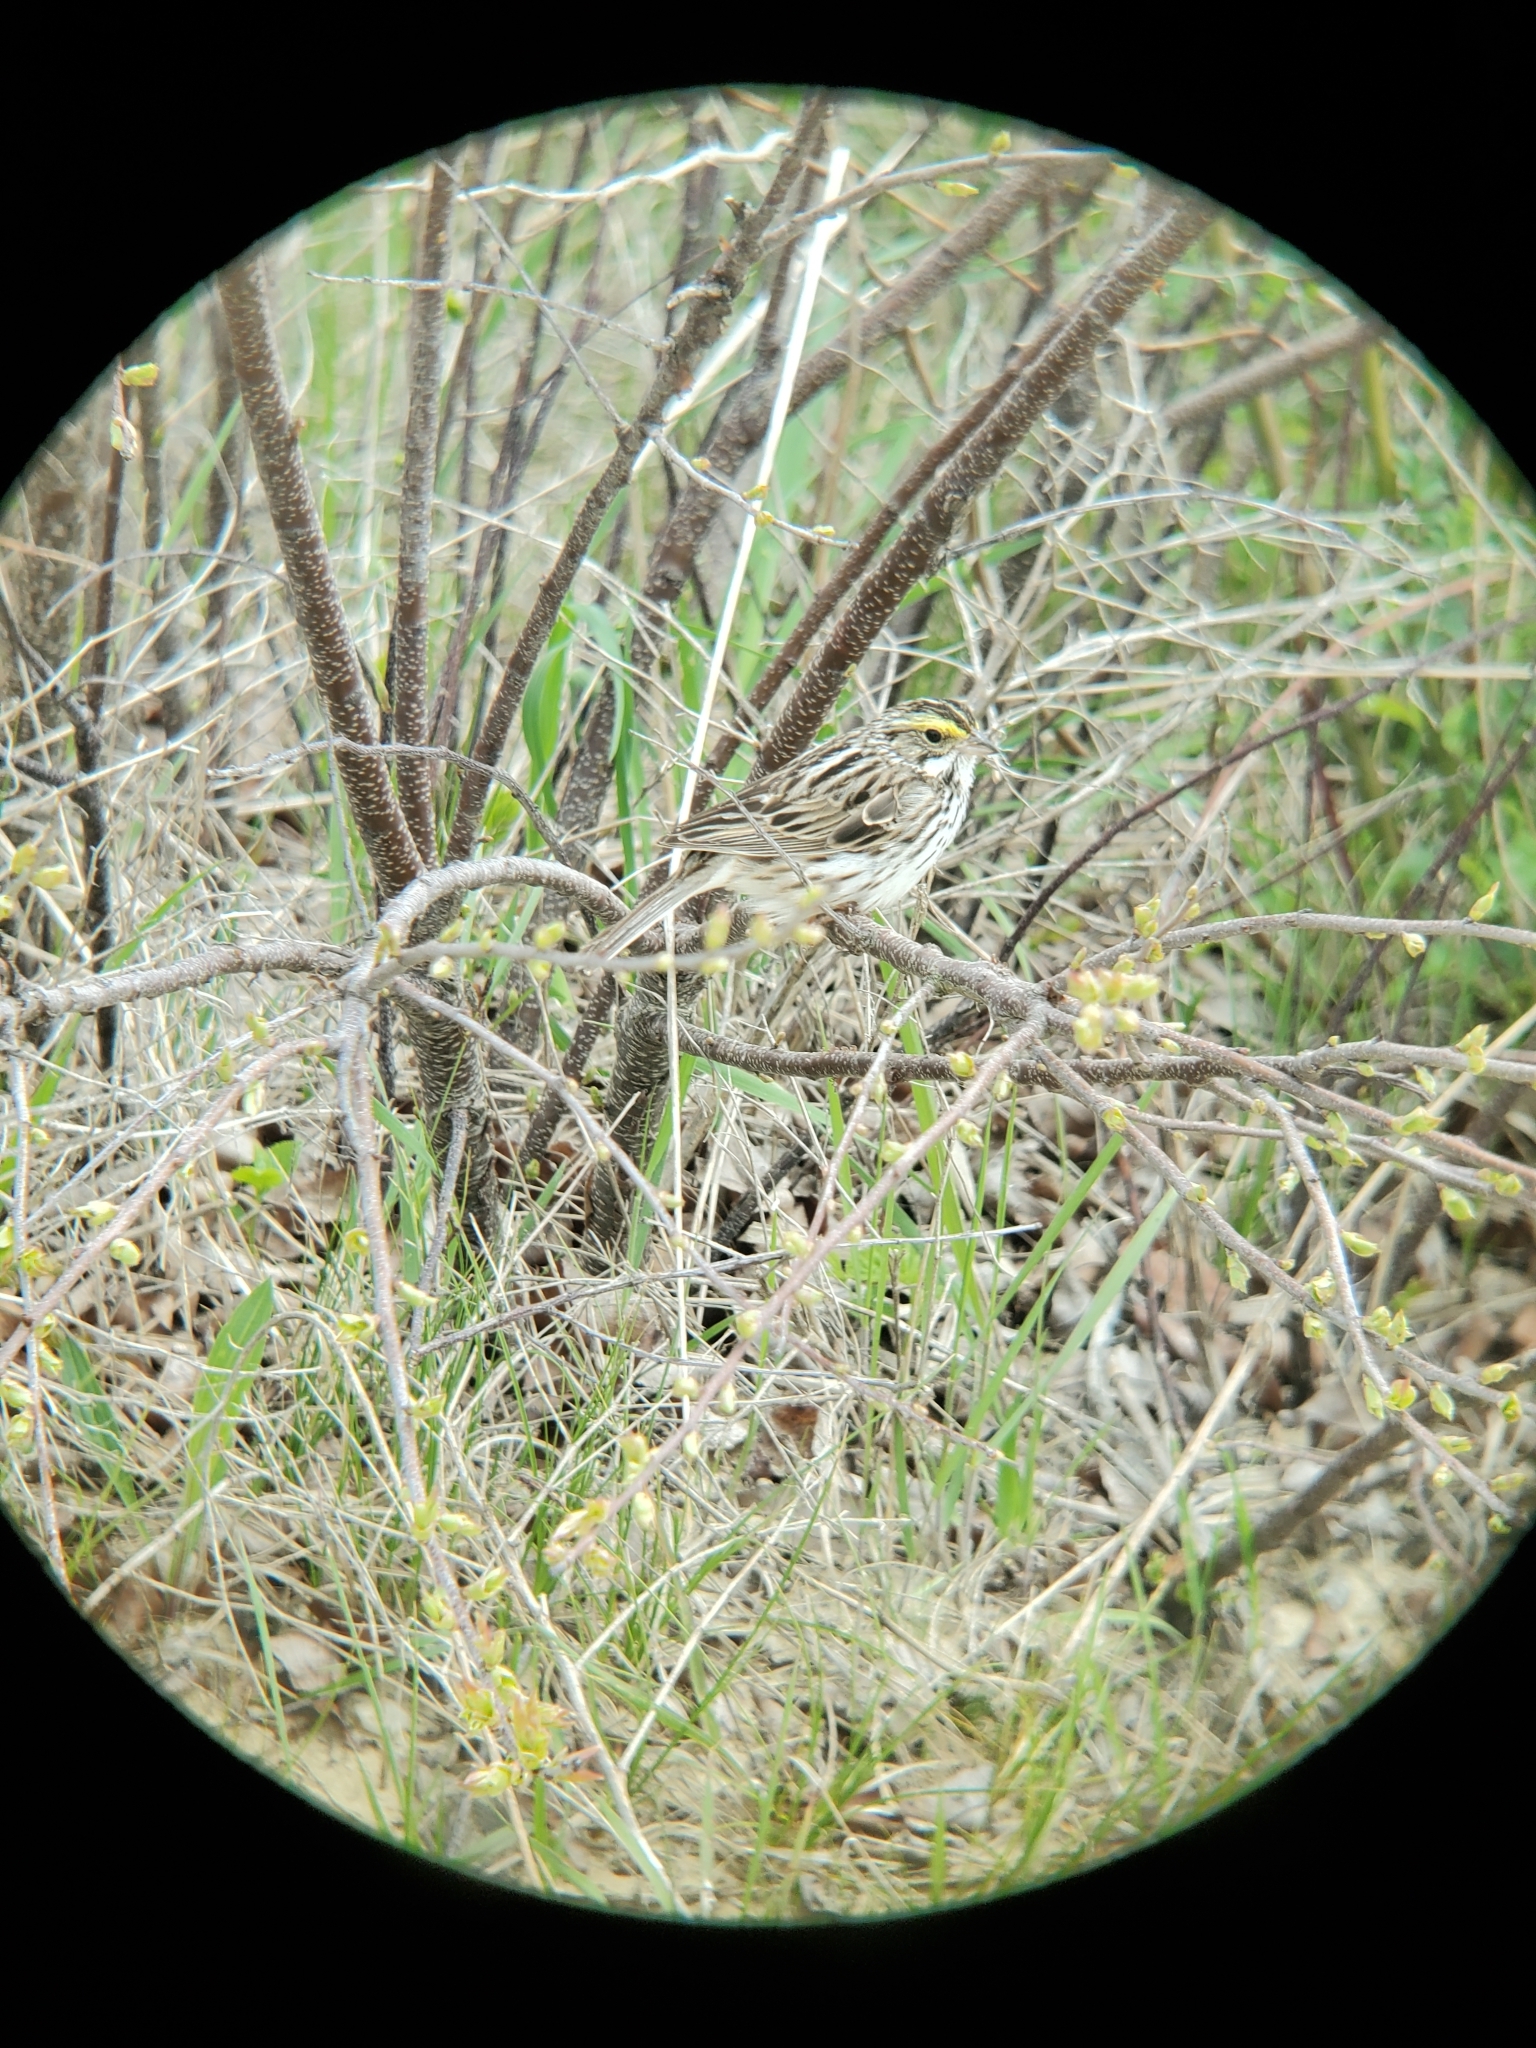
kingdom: Animalia
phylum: Chordata
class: Aves
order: Passeriformes
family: Passerellidae
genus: Passerculus
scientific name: Passerculus sandwichensis
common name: Savannah sparrow
